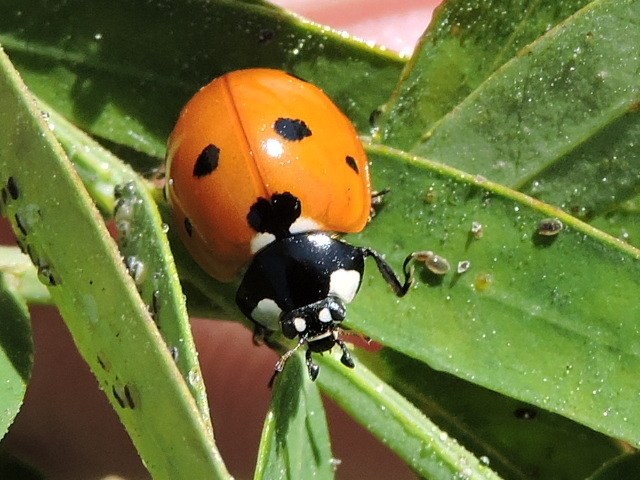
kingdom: Animalia
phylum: Arthropoda
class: Insecta
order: Coleoptera
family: Coccinellidae
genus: Coccinella
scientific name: Coccinella septempunctata
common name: Sevenspotted lady beetle
